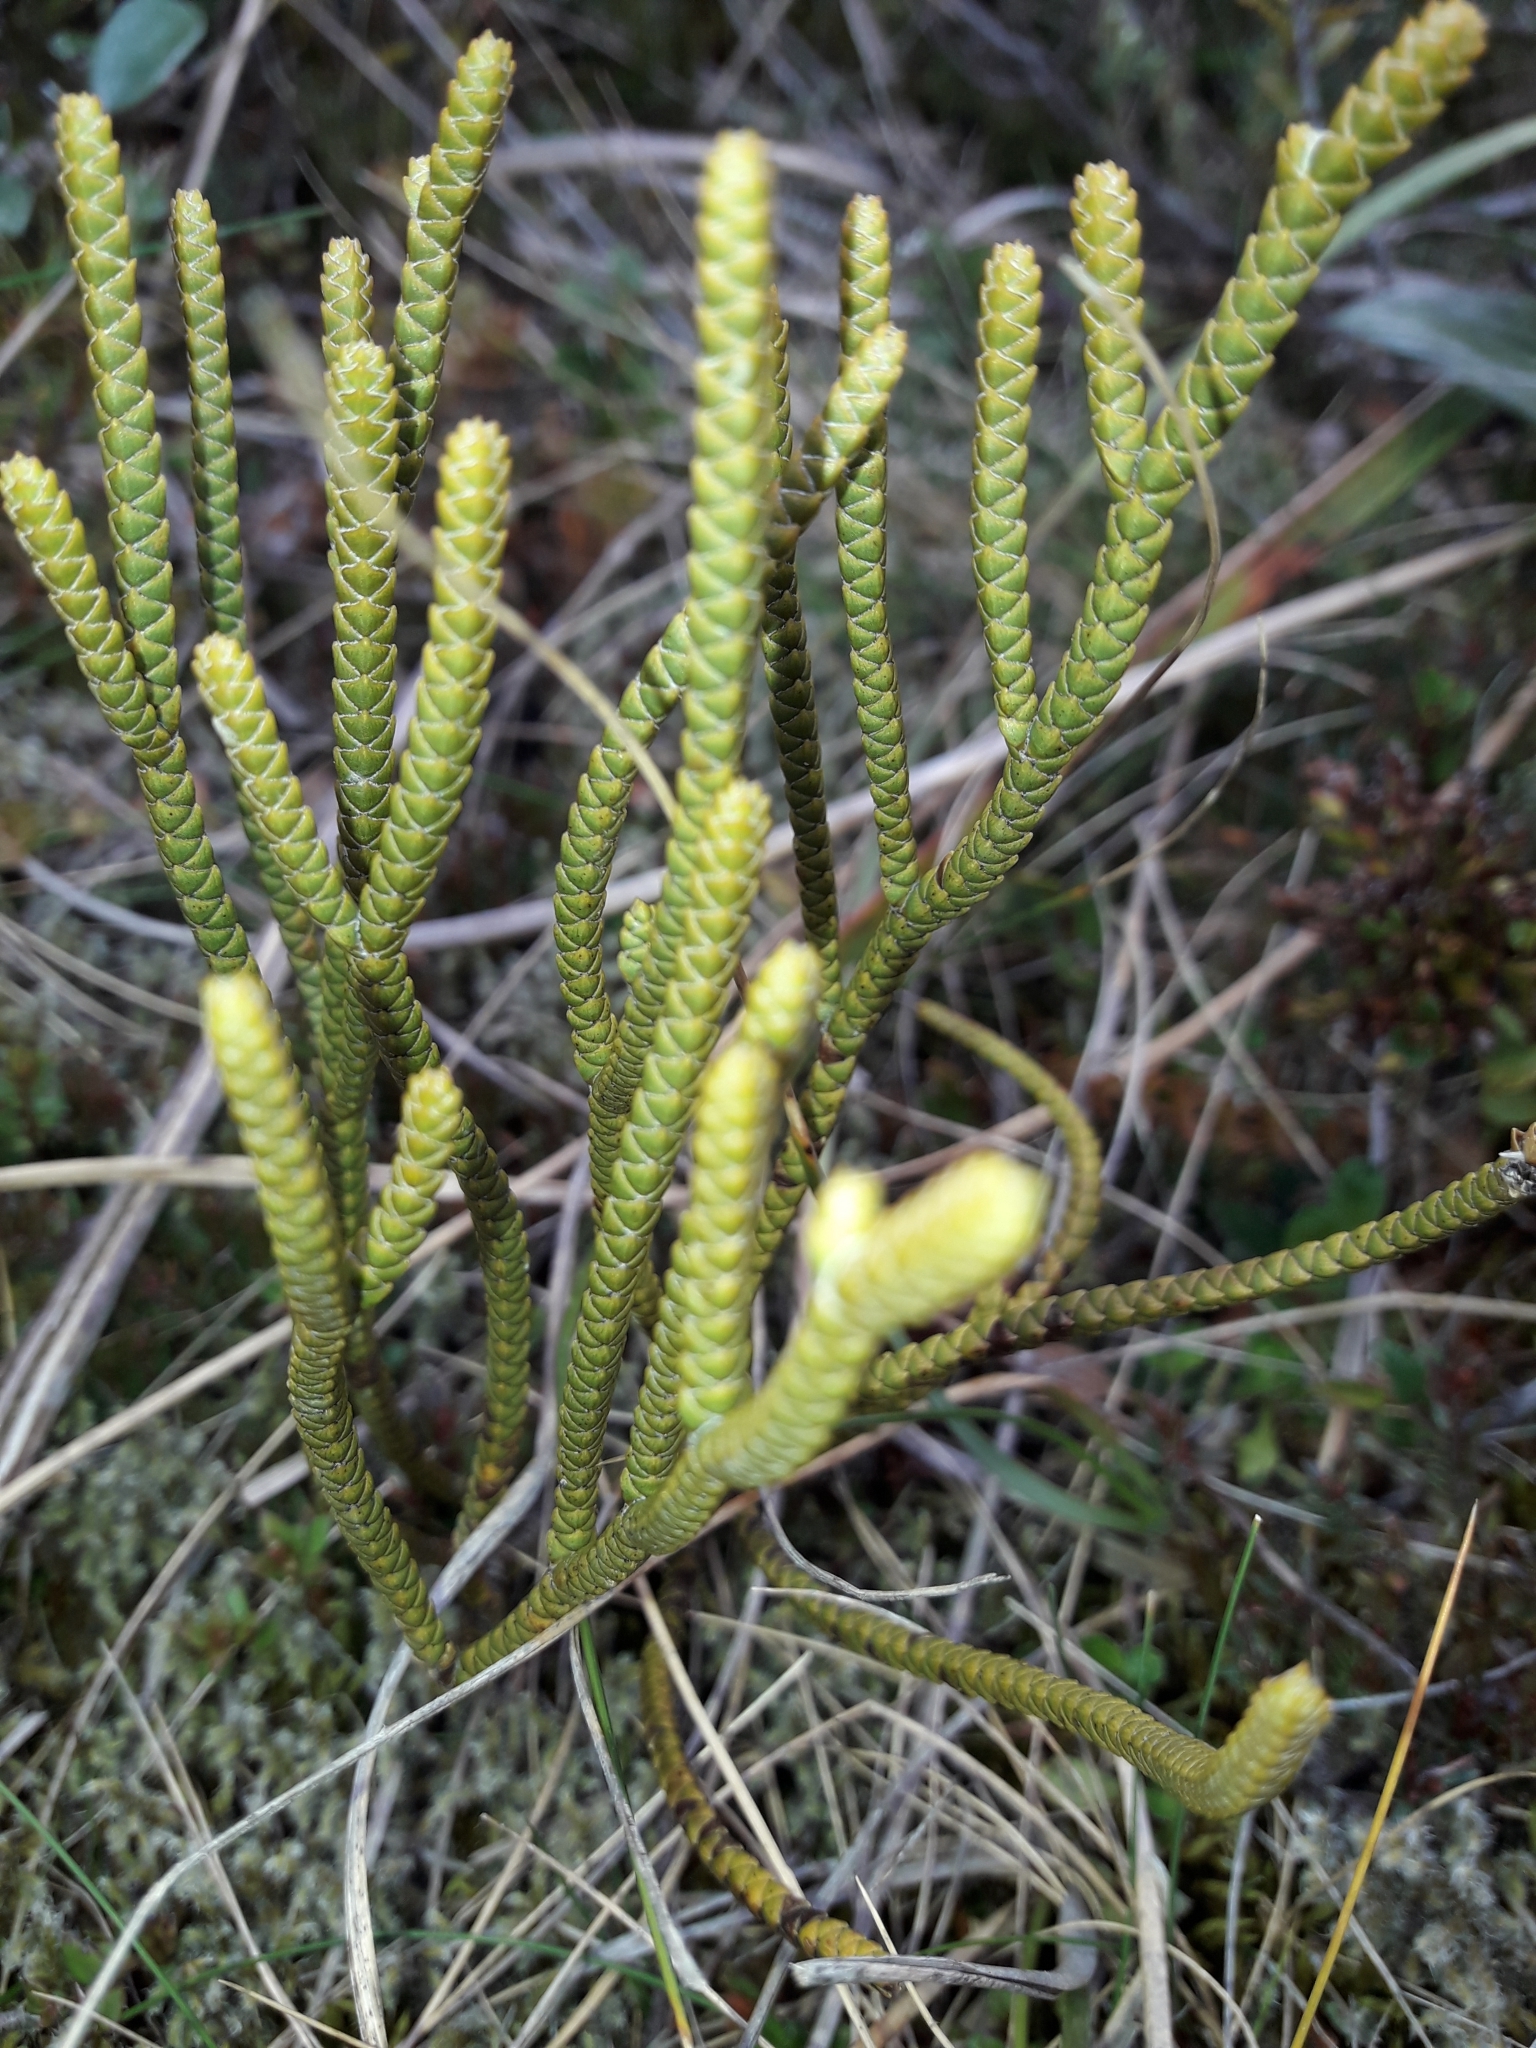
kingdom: Plantae
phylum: Tracheophyta
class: Magnoliopsida
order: Lamiales
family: Plantaginaceae
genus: Veronica
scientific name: Veronica lycopodioides
